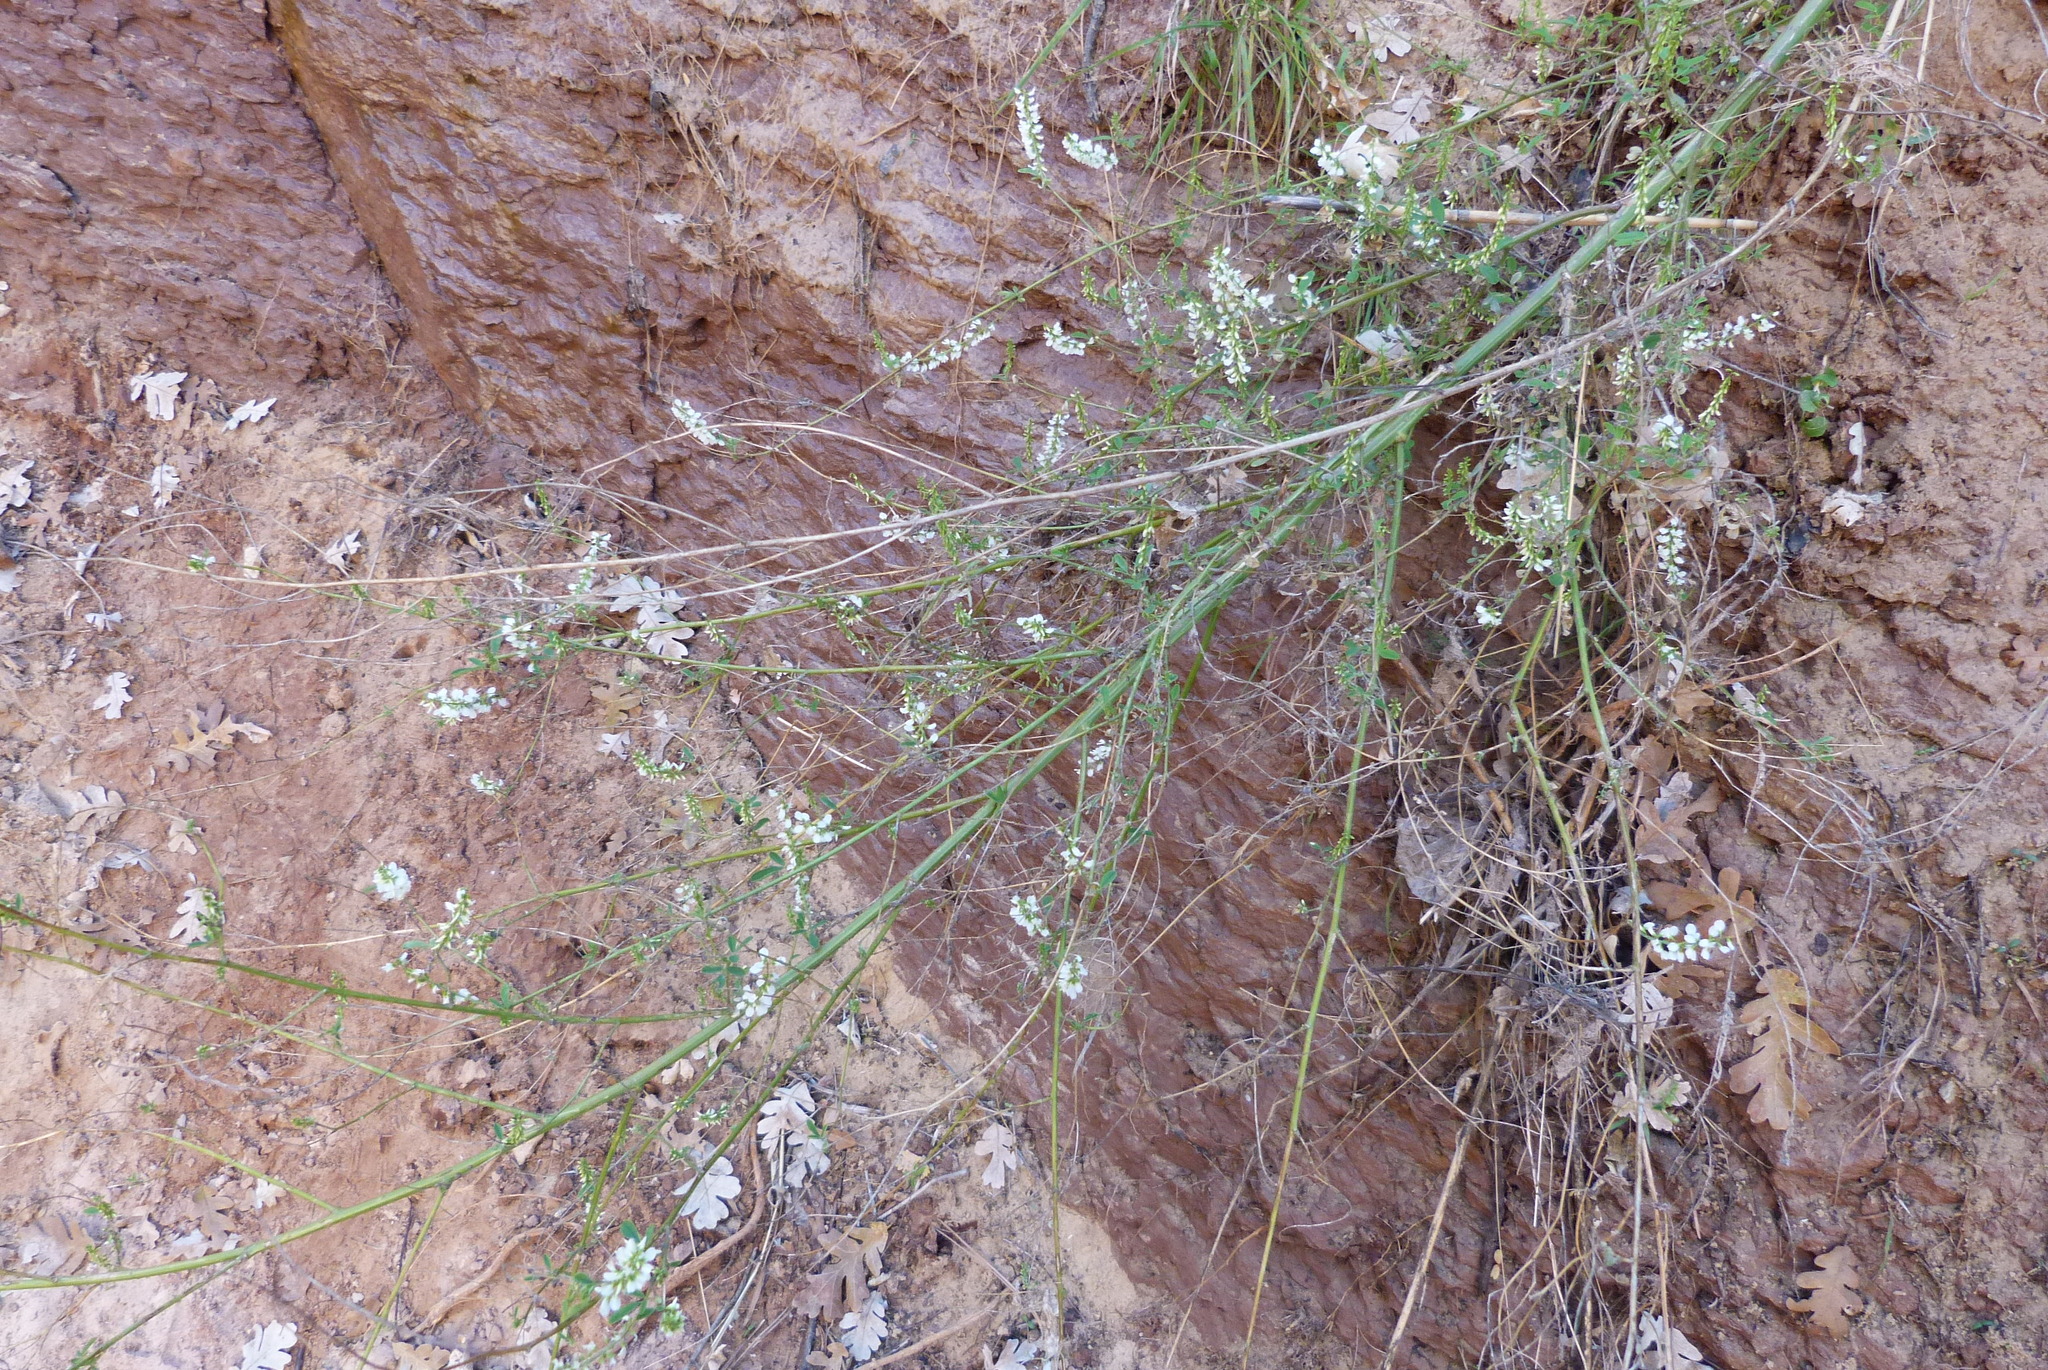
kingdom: Plantae
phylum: Tracheophyta
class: Magnoliopsida
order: Fabales
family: Fabaceae
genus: Melilotus
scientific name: Melilotus albus
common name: White melilot
